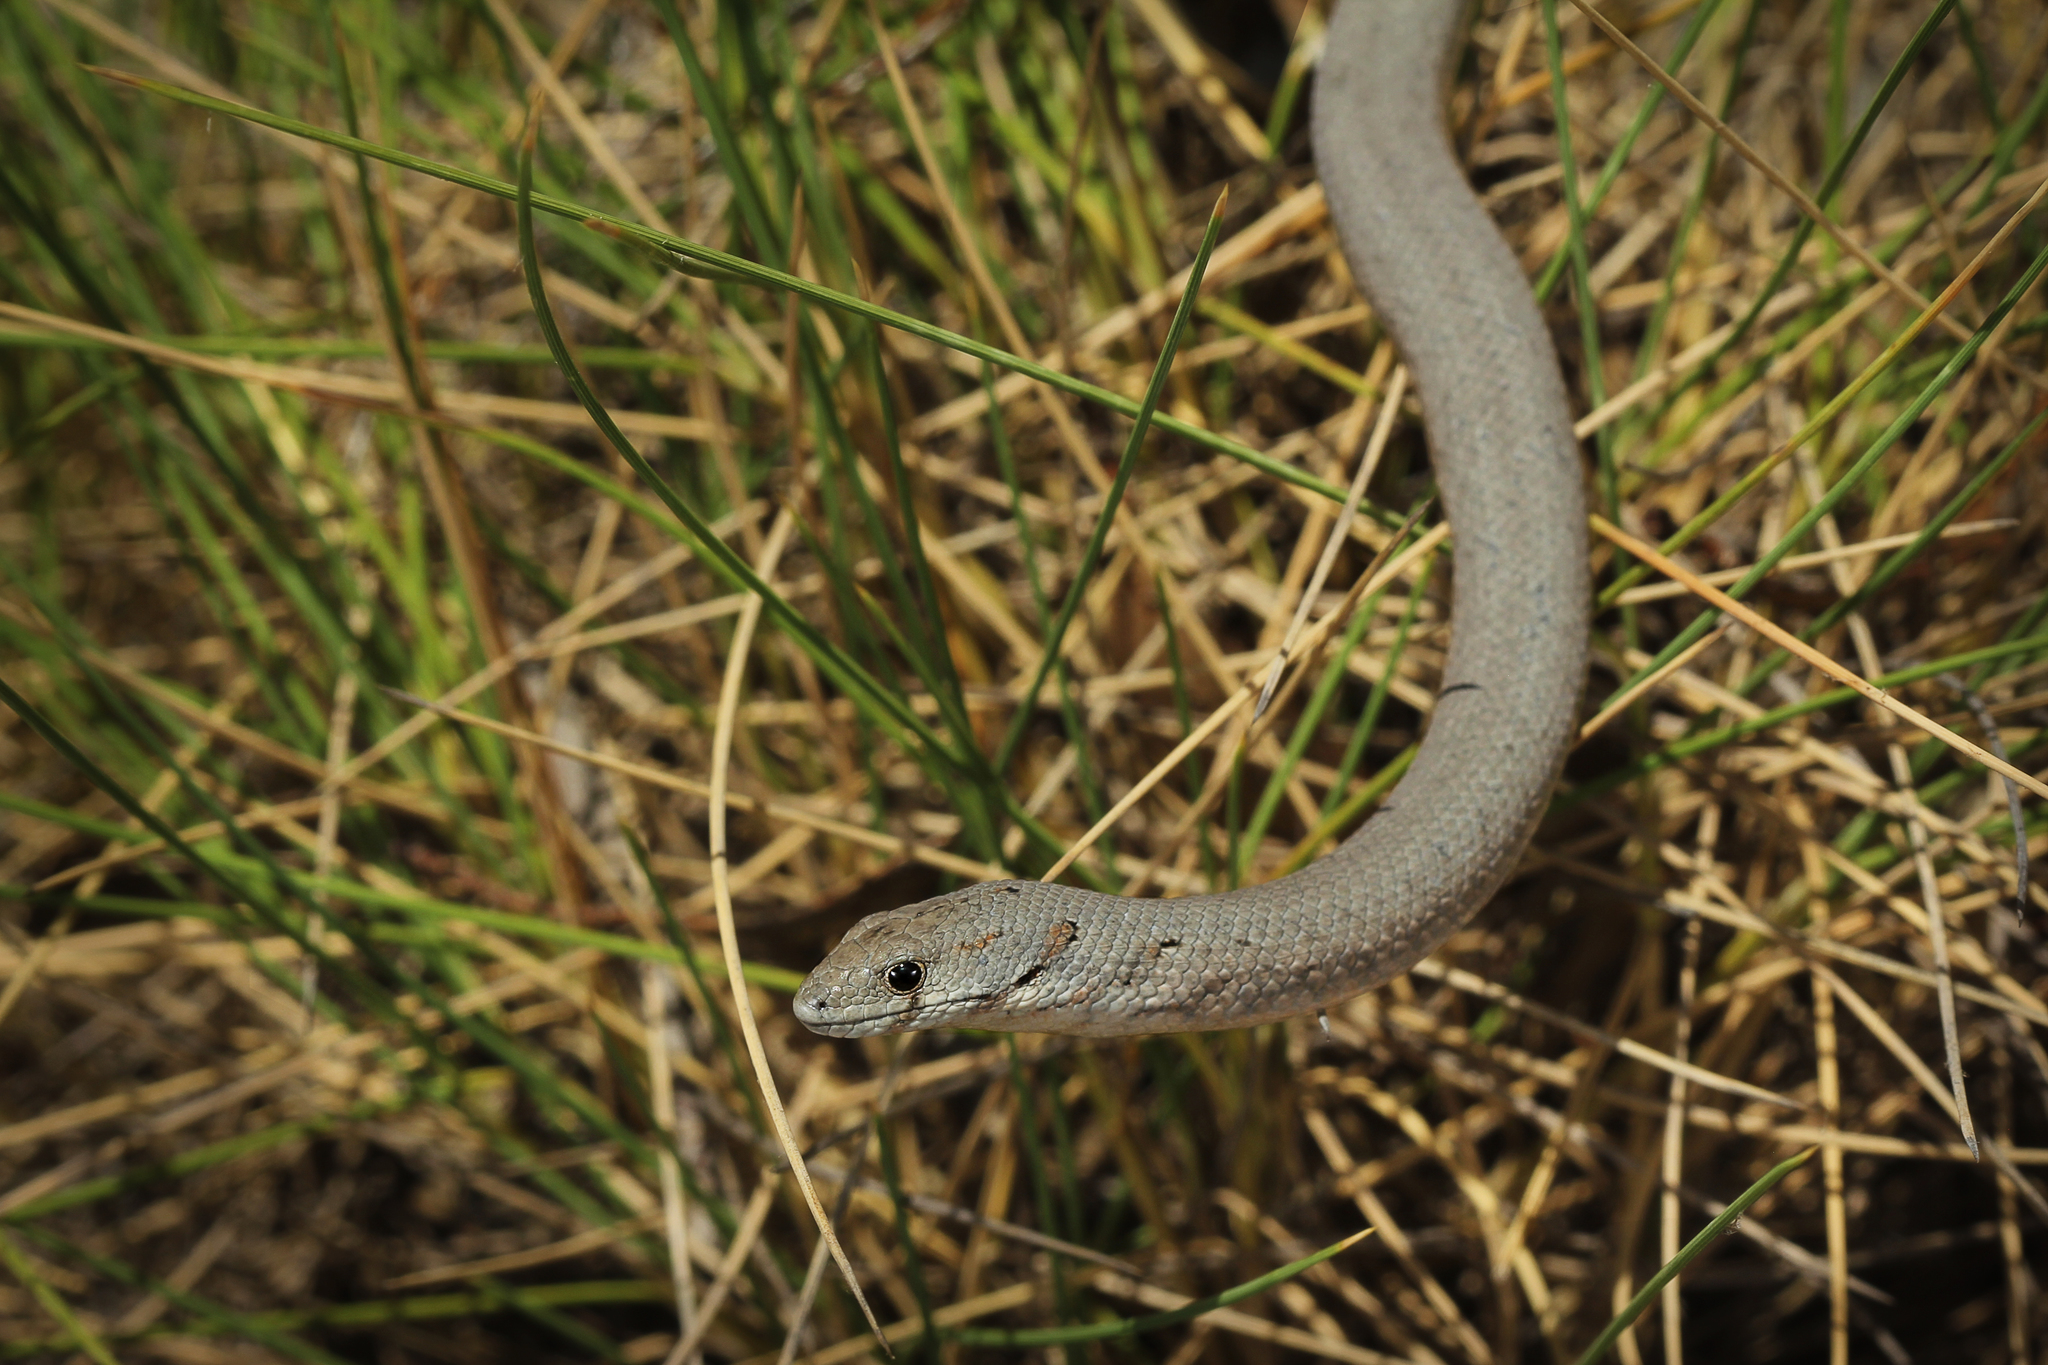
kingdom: Animalia
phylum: Chordata
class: Squamata
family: Pygopodidae
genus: Pygopus
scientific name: Pygopus lepidopodus
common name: Southern scaly-foot
